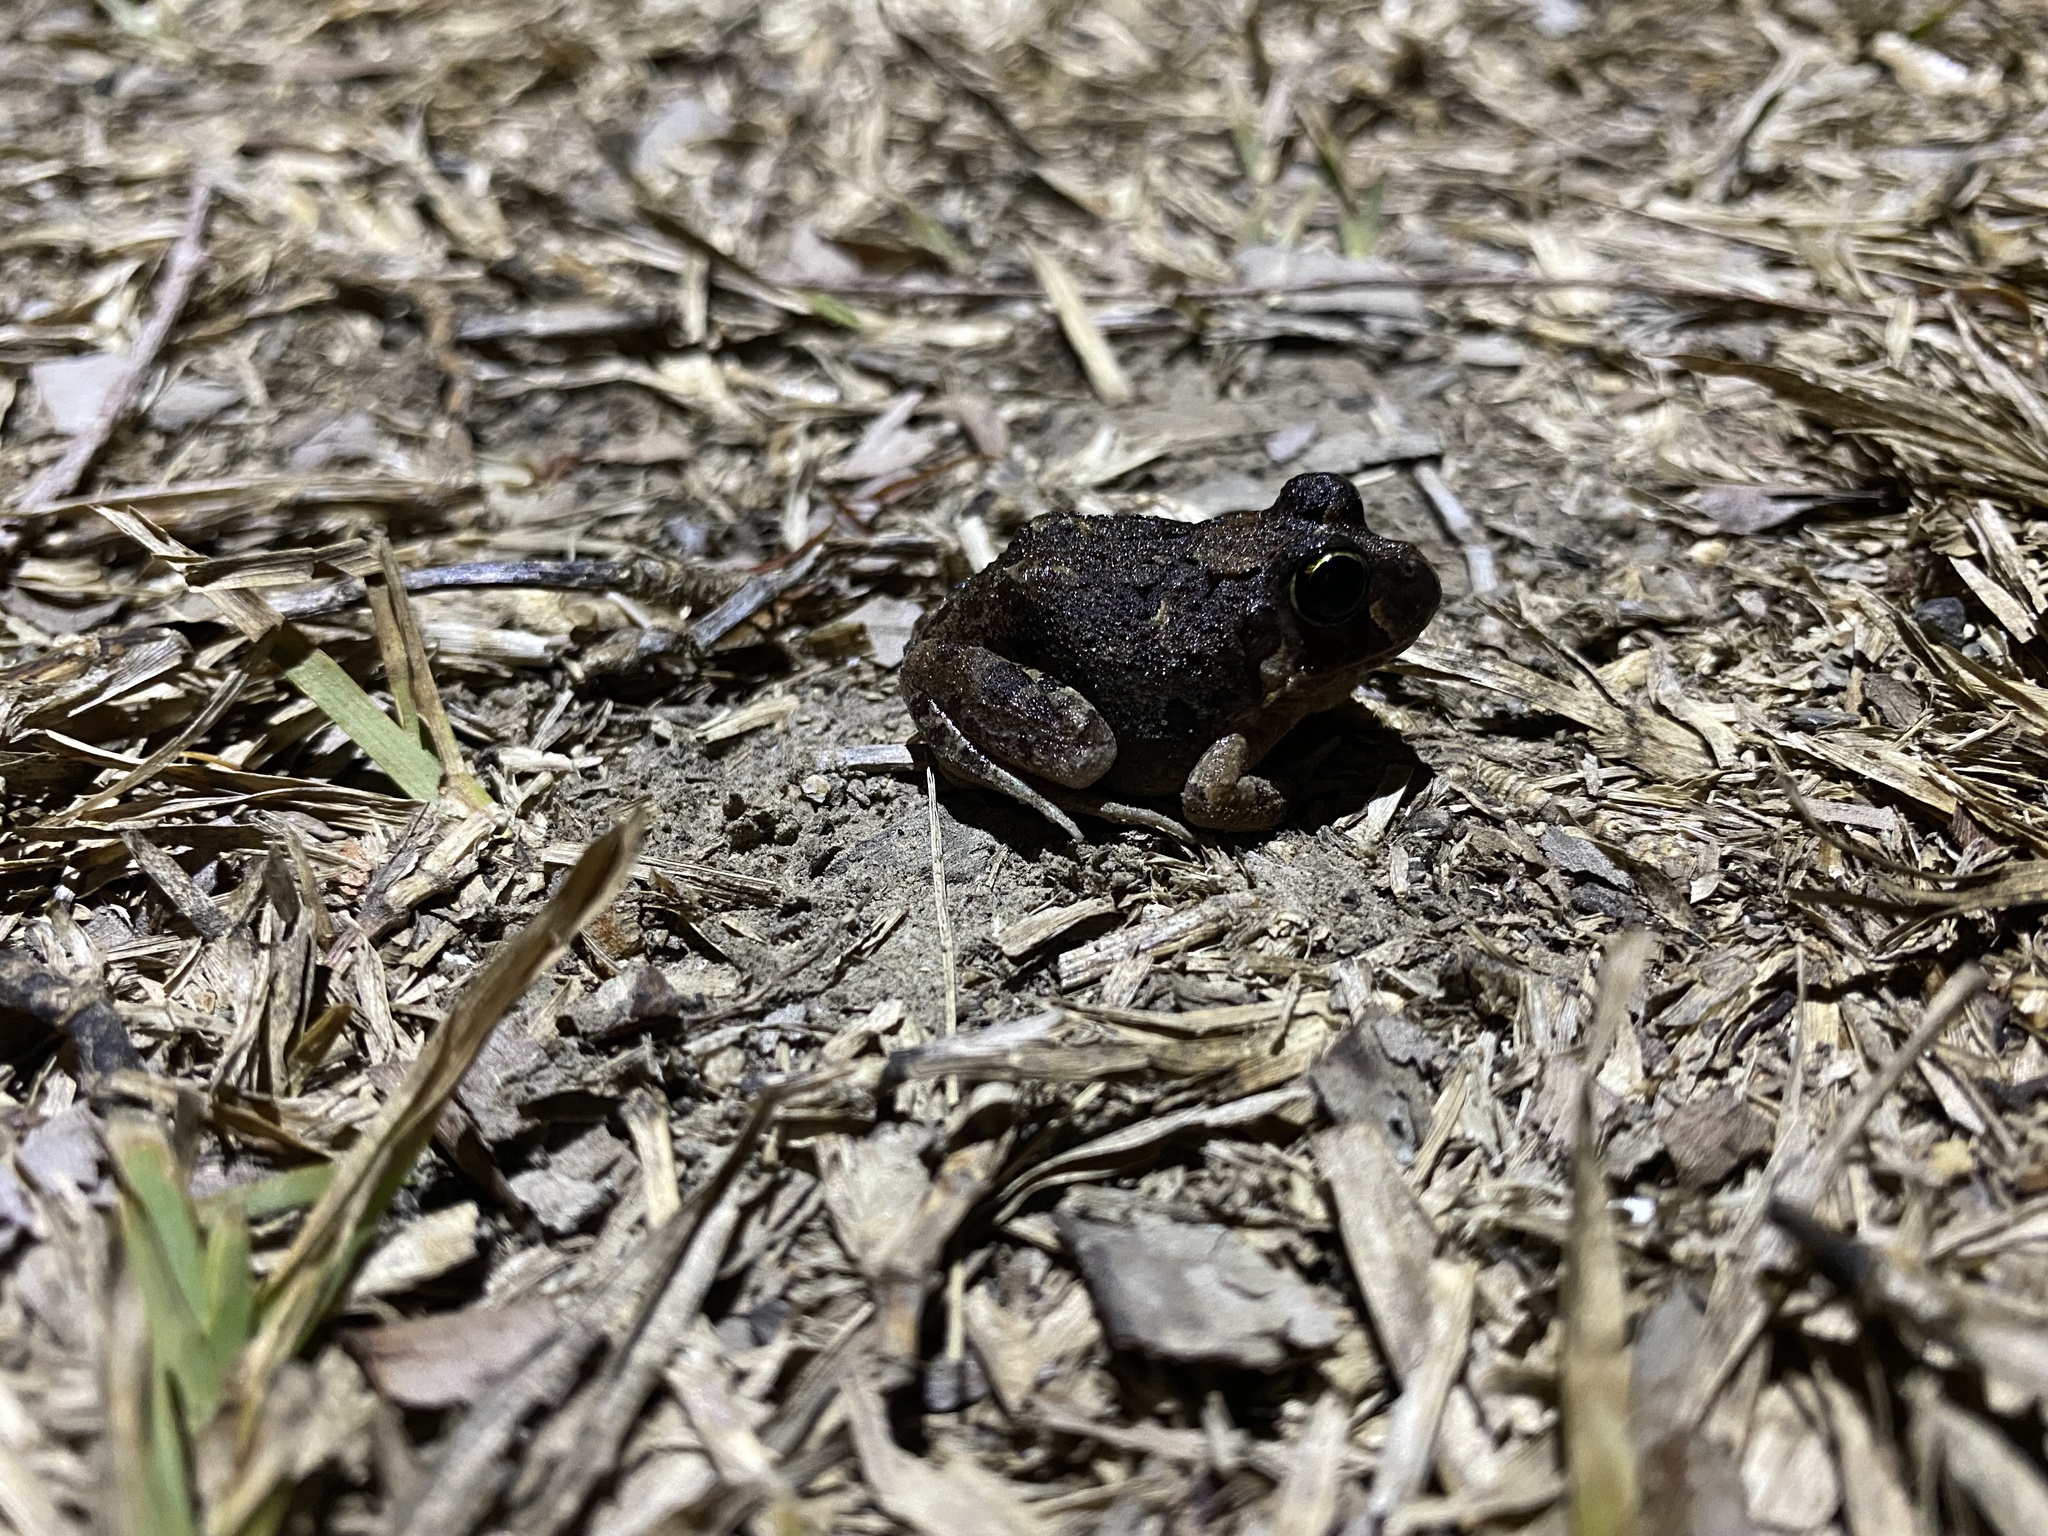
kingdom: Animalia
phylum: Chordata
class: Amphibia
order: Anura
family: Limnodynastidae
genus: Platyplectrum
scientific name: Platyplectrum ornatum
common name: Ornate burrowing frog
